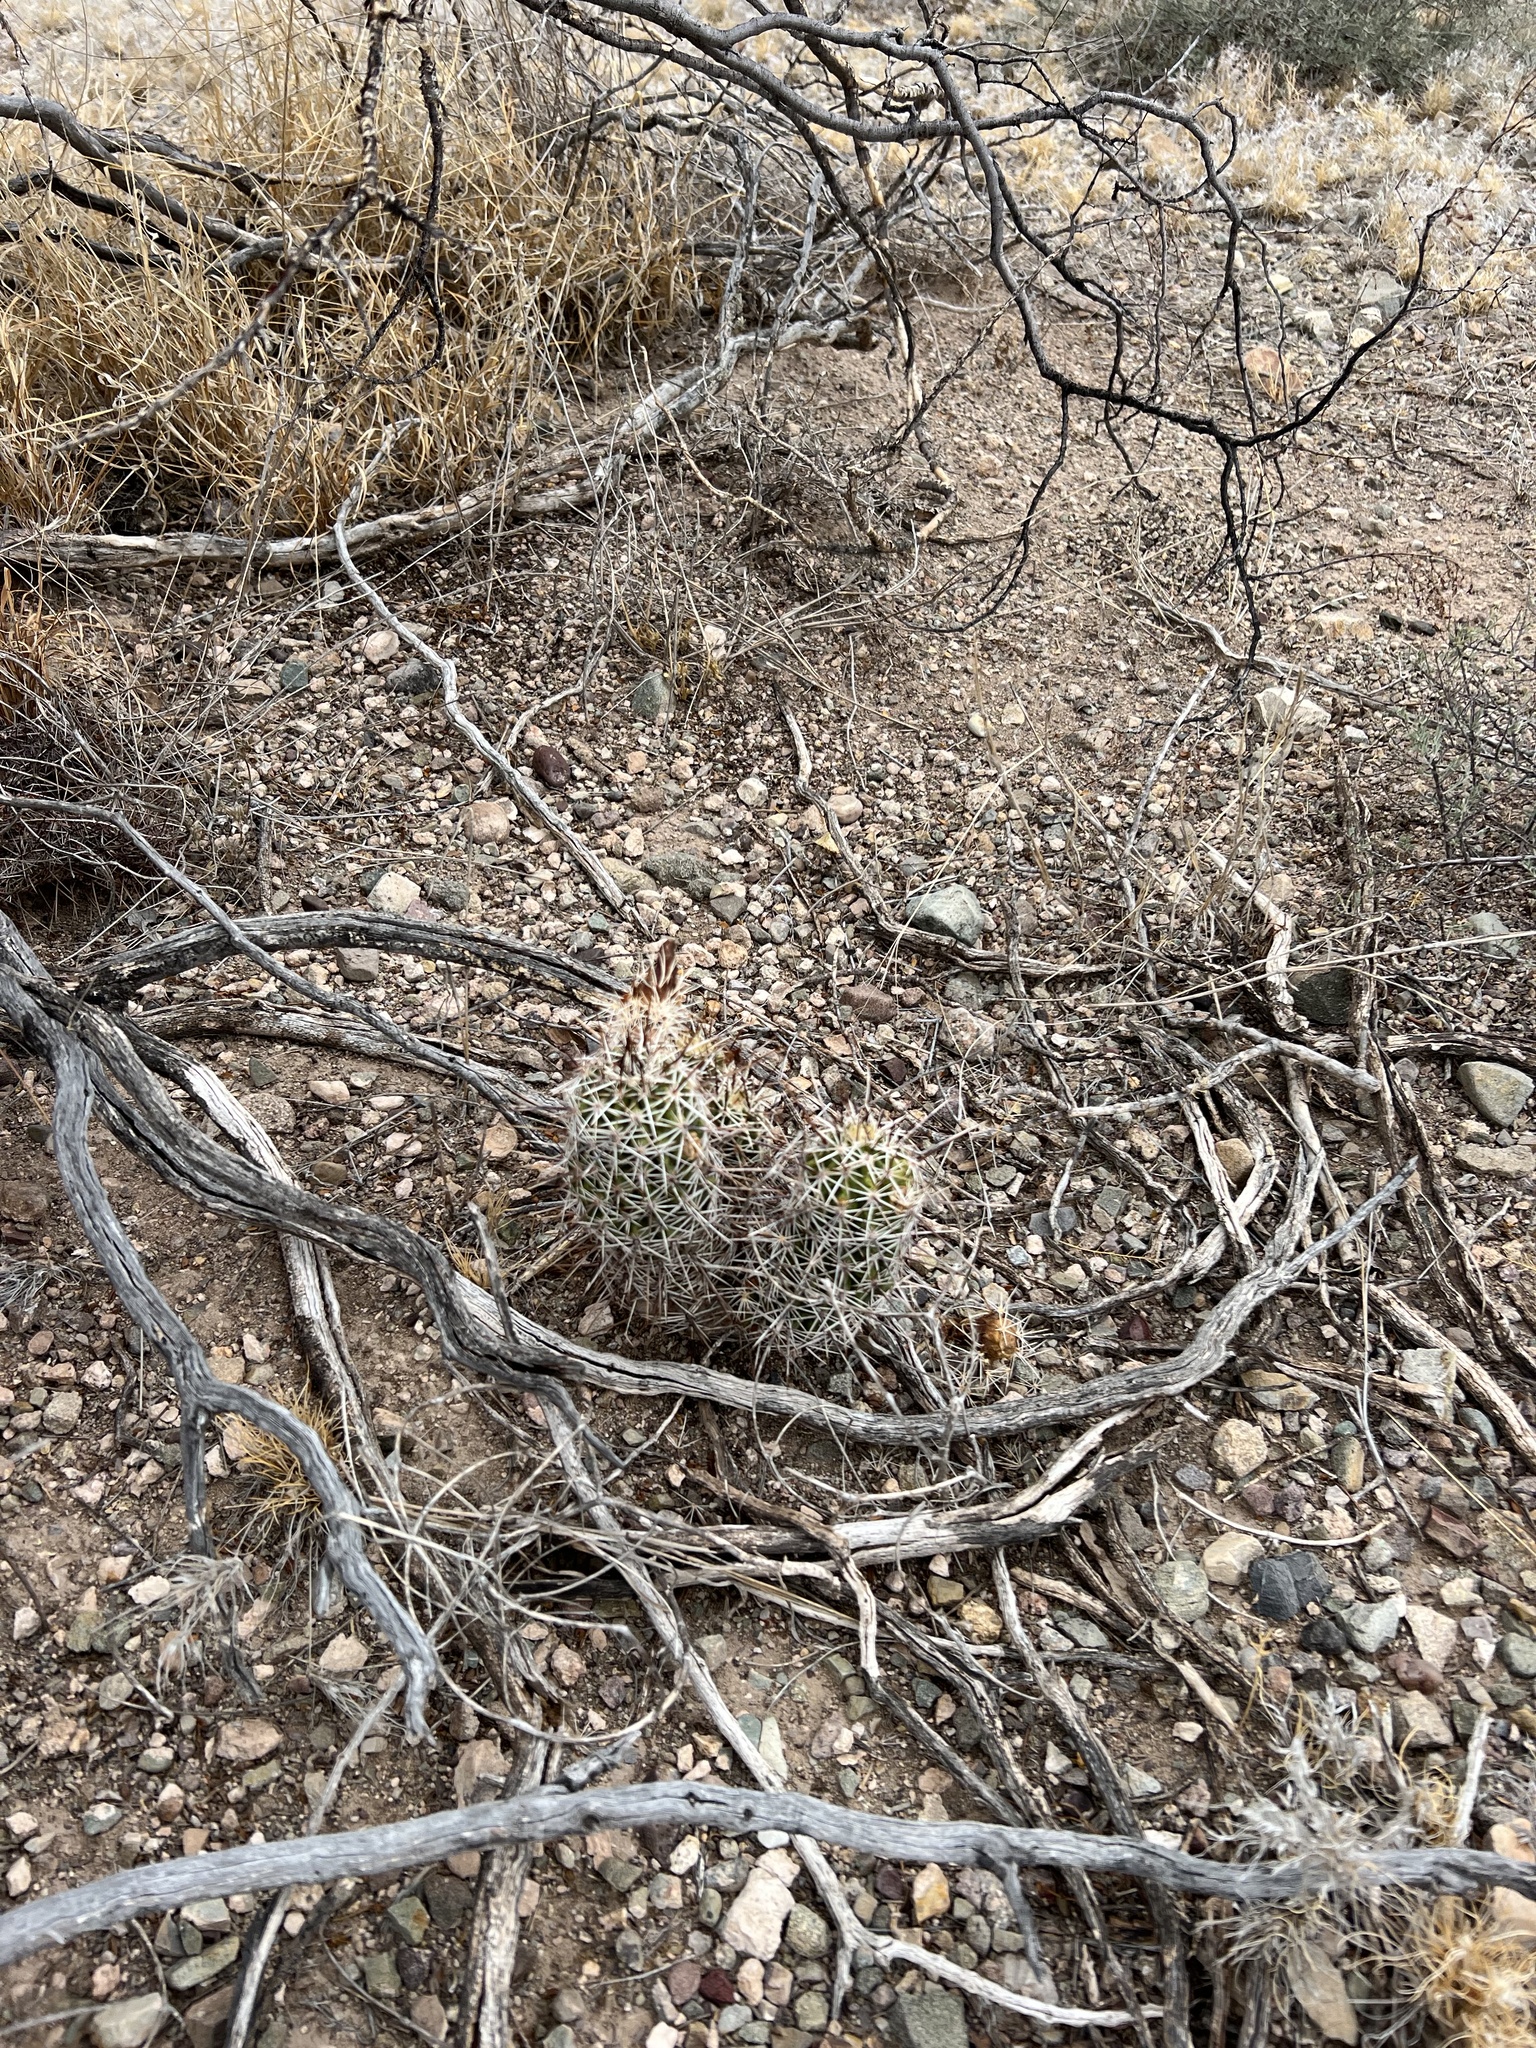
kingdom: Plantae
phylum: Tracheophyta
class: Magnoliopsida
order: Caryophyllales
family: Cactaceae
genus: Echinocereus
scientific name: Echinocereus fasciculatus
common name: Bundle hedgehog
